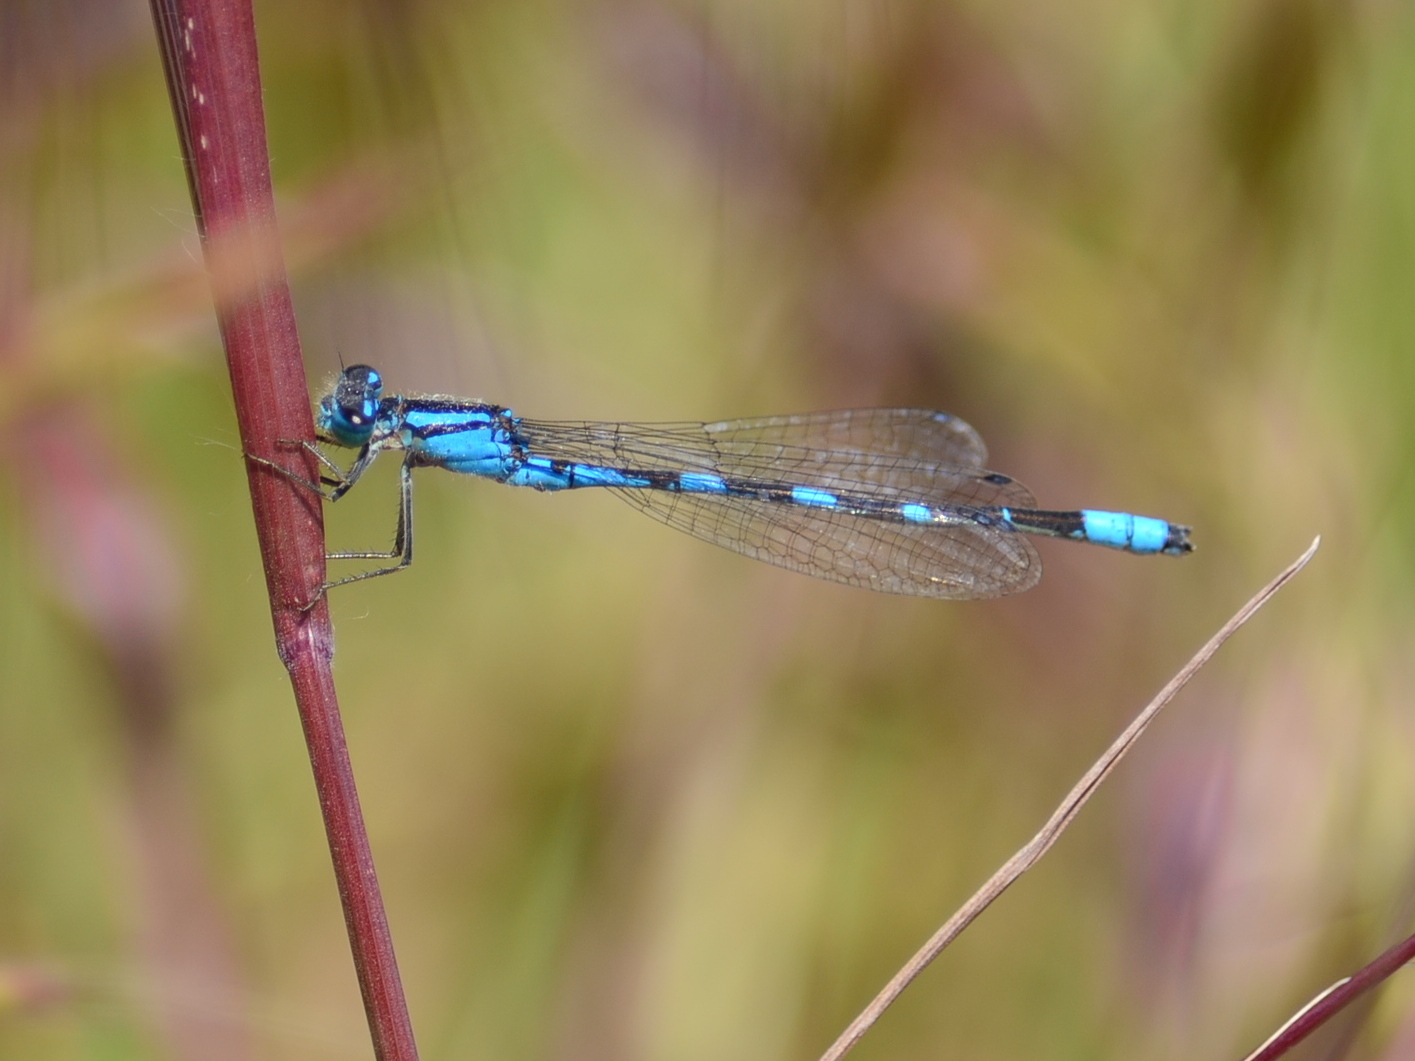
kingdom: Animalia
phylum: Arthropoda
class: Insecta
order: Odonata
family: Coenagrionidae
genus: Enallagma
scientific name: Enallagma carunculatum
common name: Tule bluet
